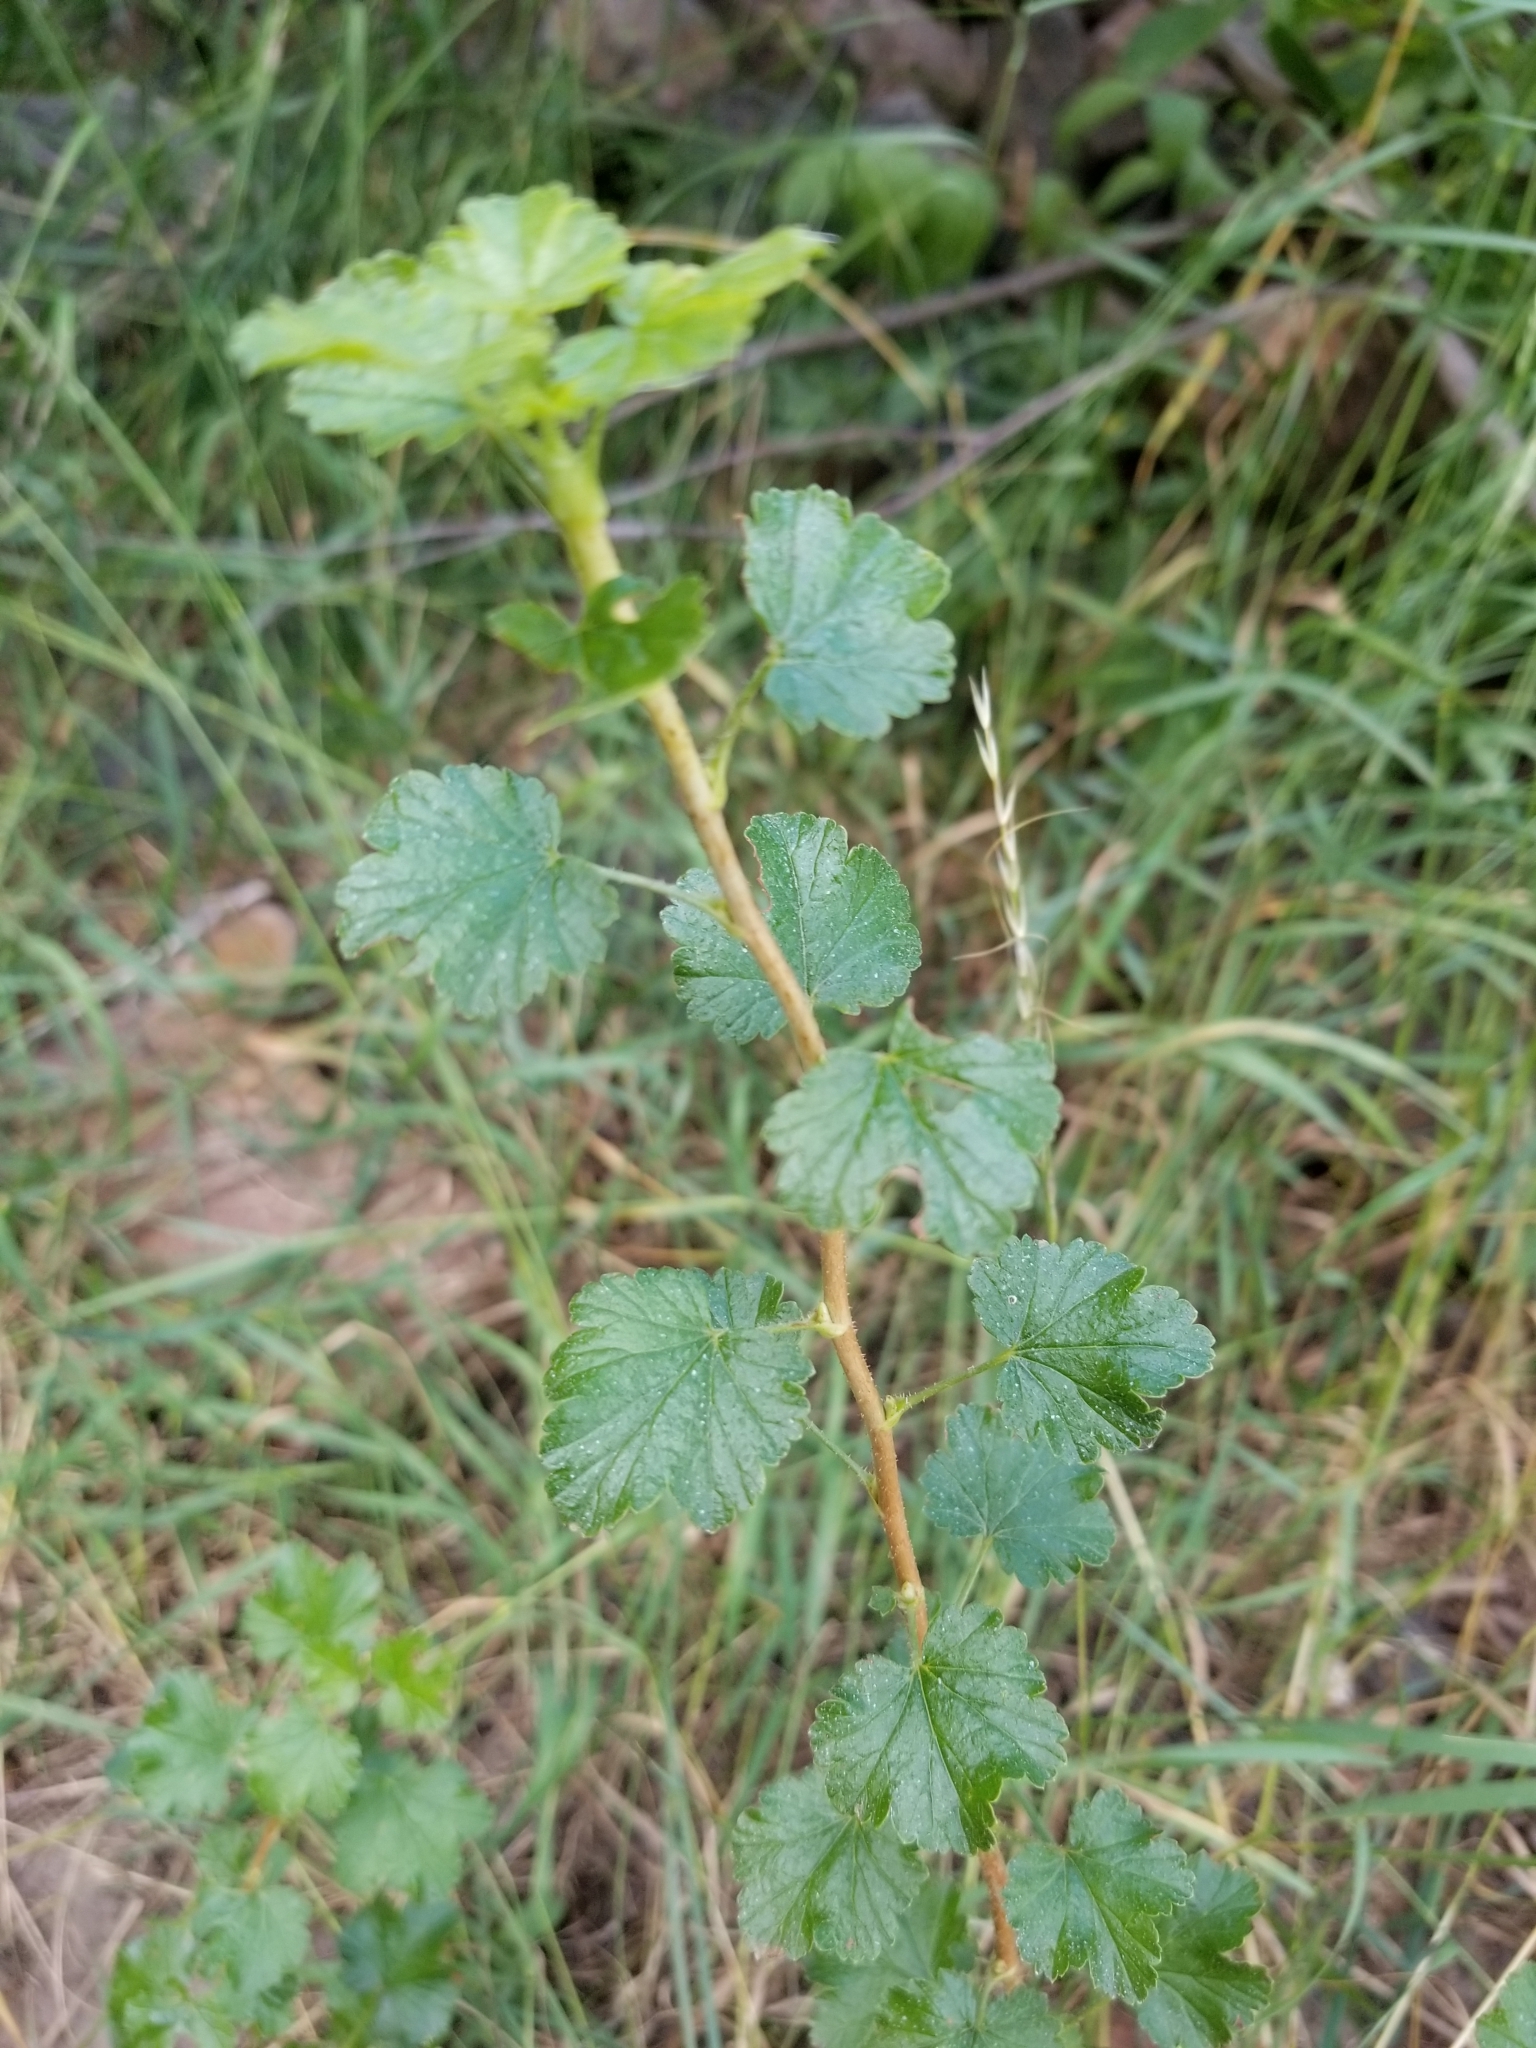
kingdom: Plantae
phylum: Tracheophyta
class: Magnoliopsida
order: Saxifragales
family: Grossulariaceae
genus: Ribes
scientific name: Ribes cereum
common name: Wax currant
